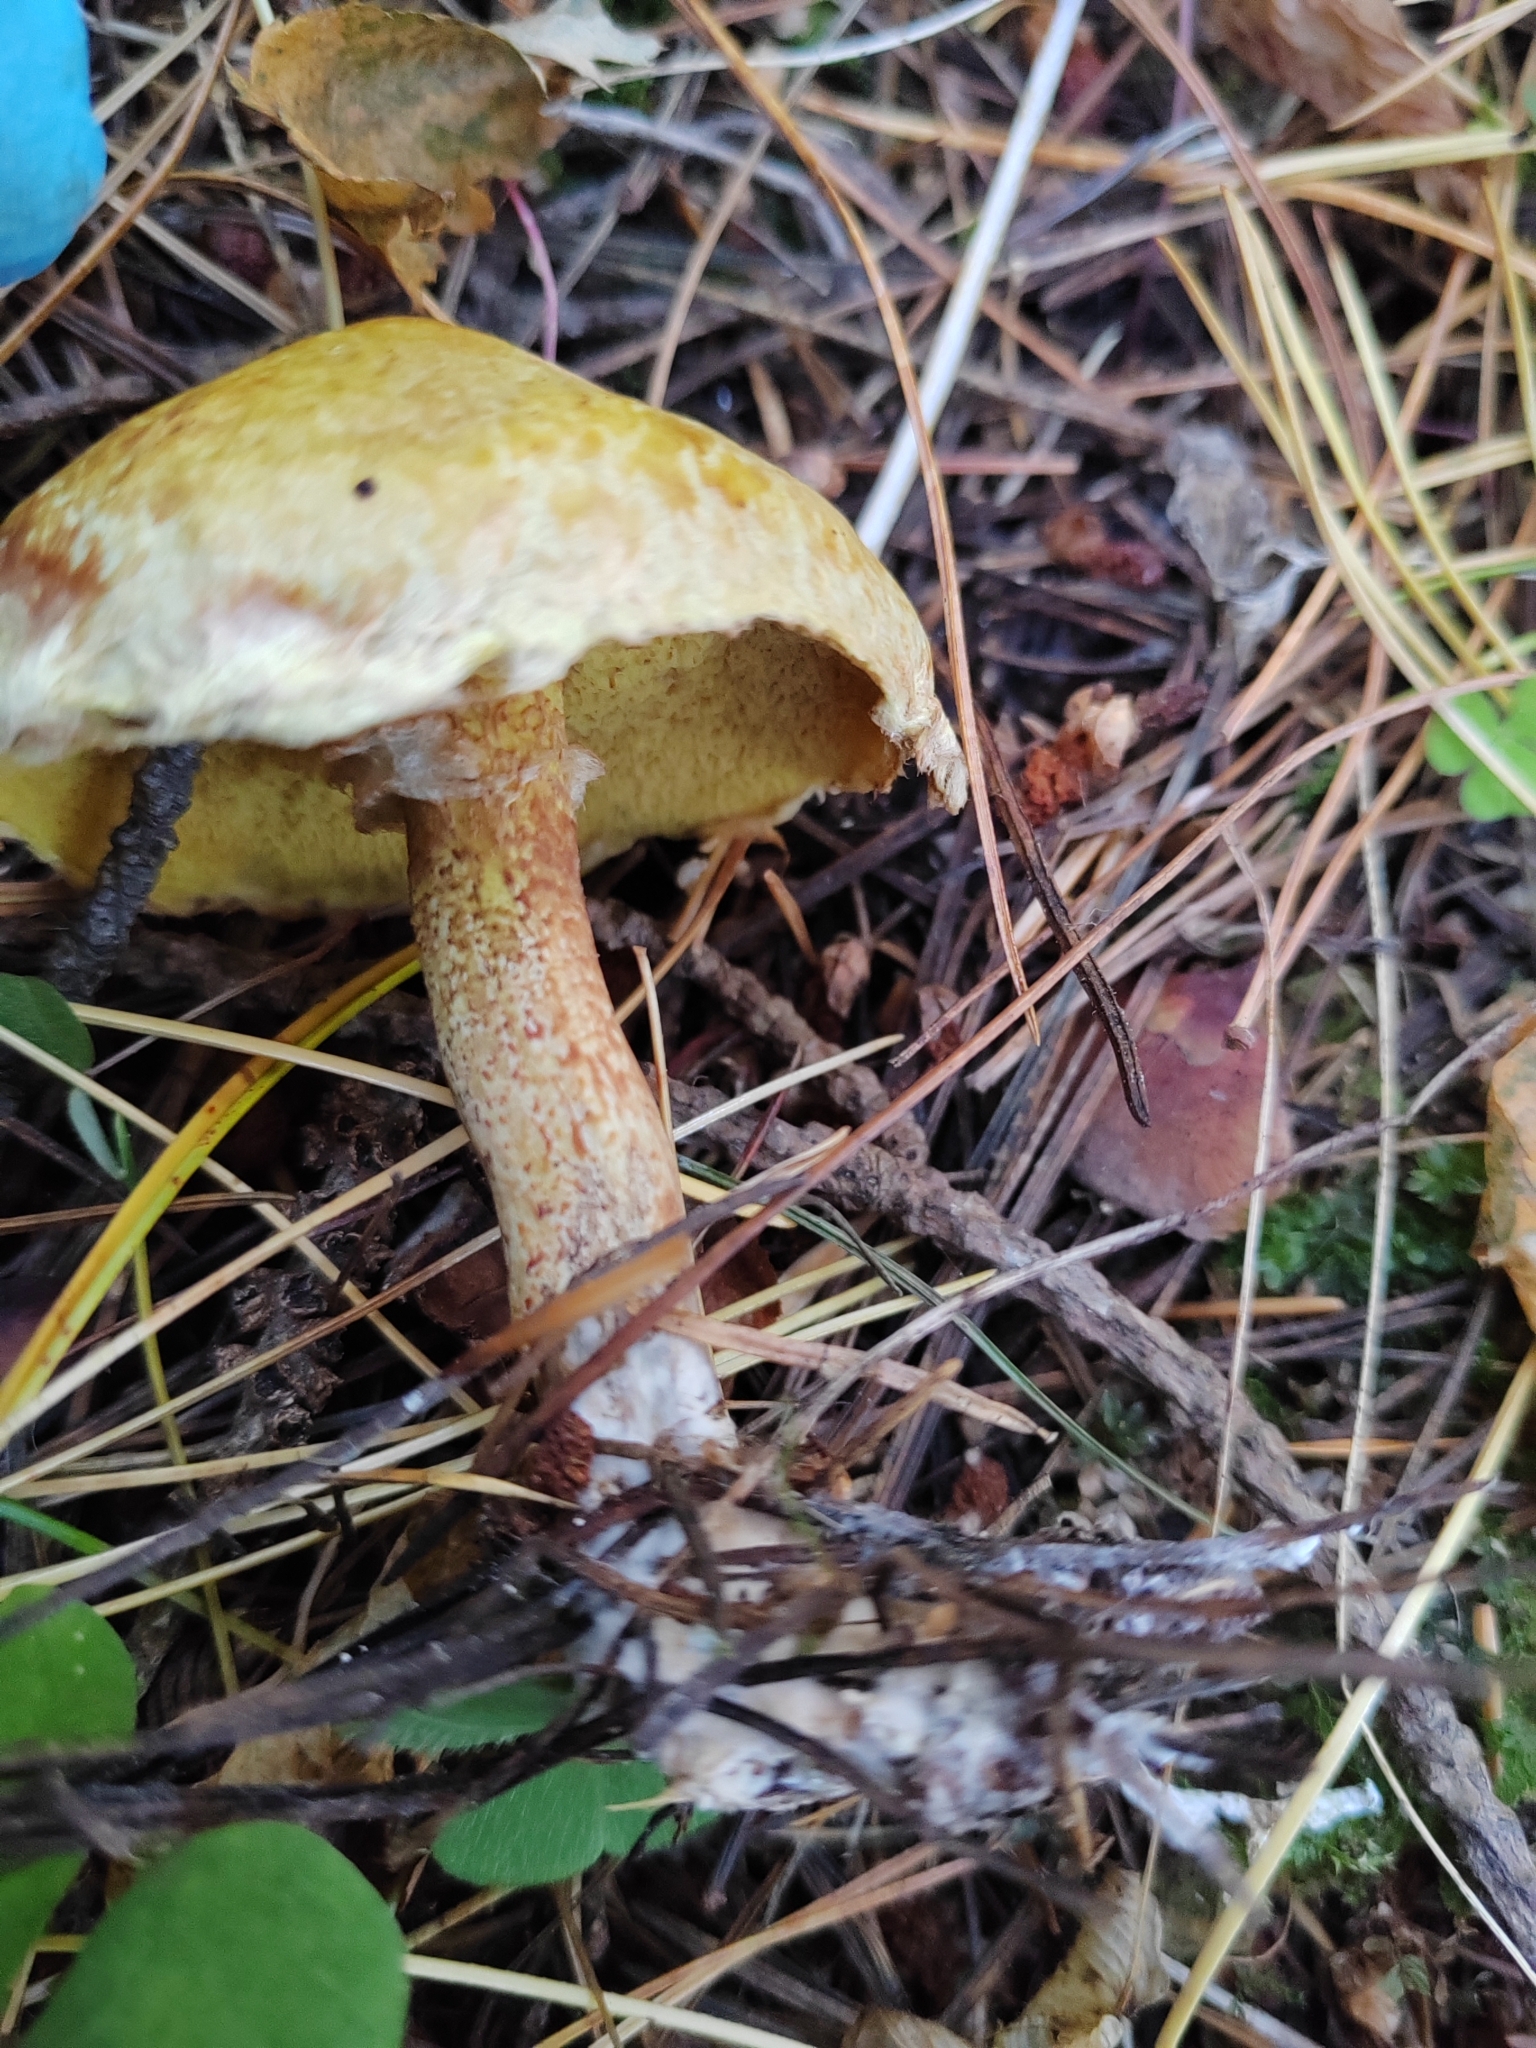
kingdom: Fungi
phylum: Basidiomycota
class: Agaricomycetes
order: Boletales
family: Suillaceae
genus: Suillus
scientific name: Suillus americanus
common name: Chicken fat mushroom
